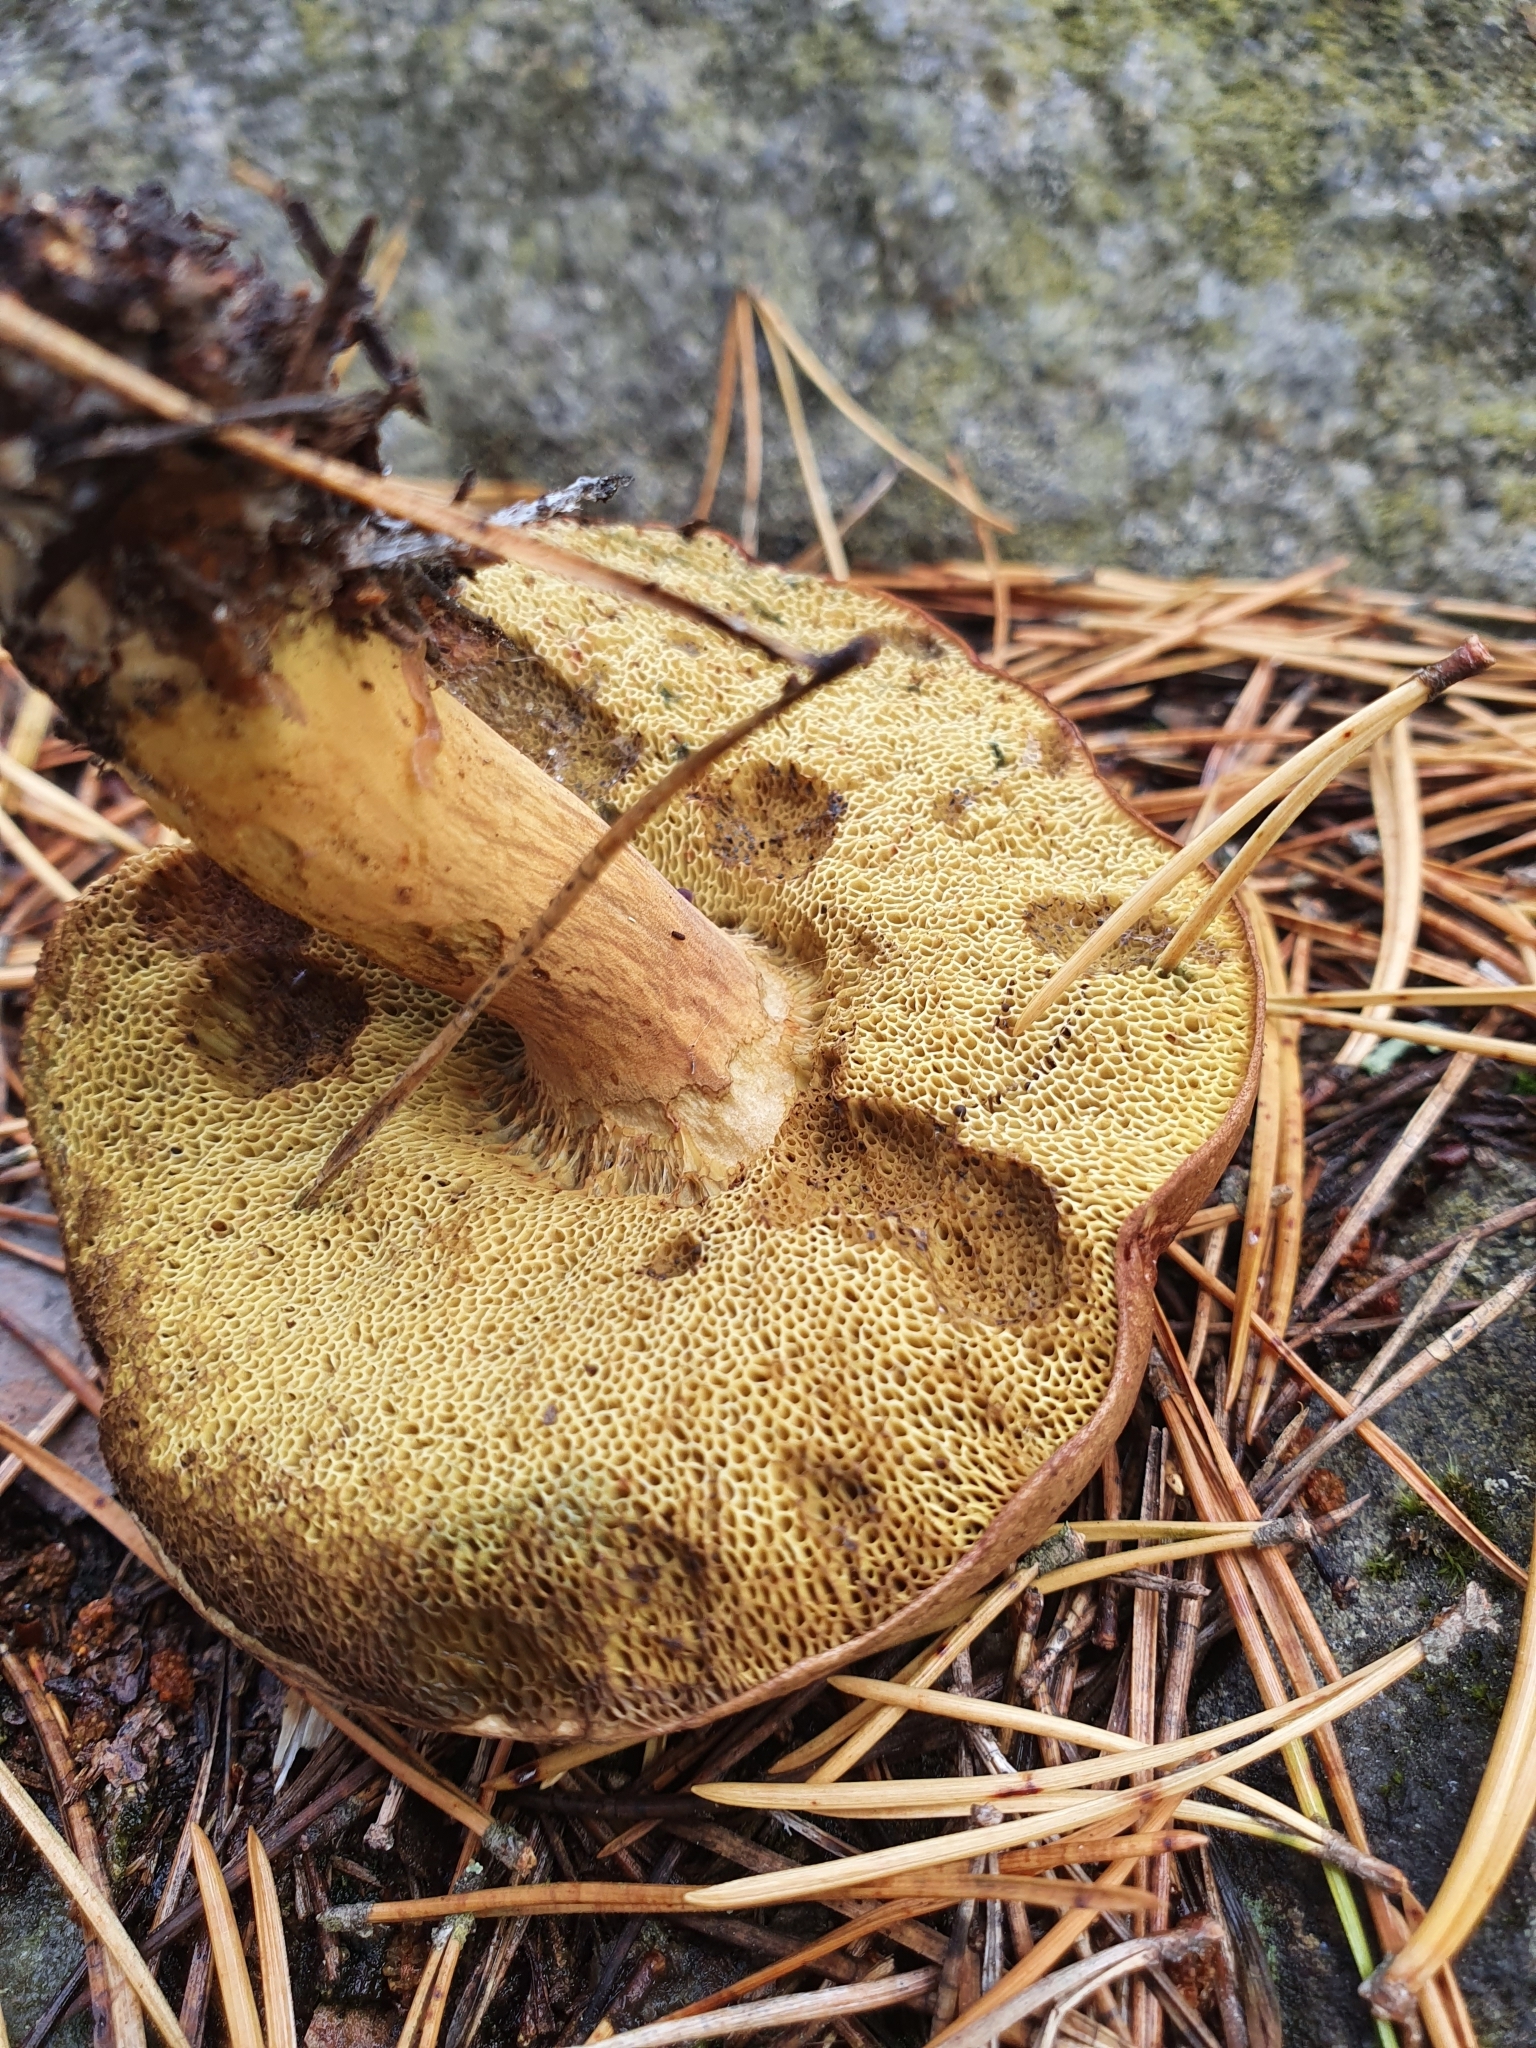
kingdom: Fungi
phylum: Basidiomycota
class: Agaricomycetes
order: Boletales
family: Boletaceae
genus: Imleria
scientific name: Imleria badia
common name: Bay bolete
